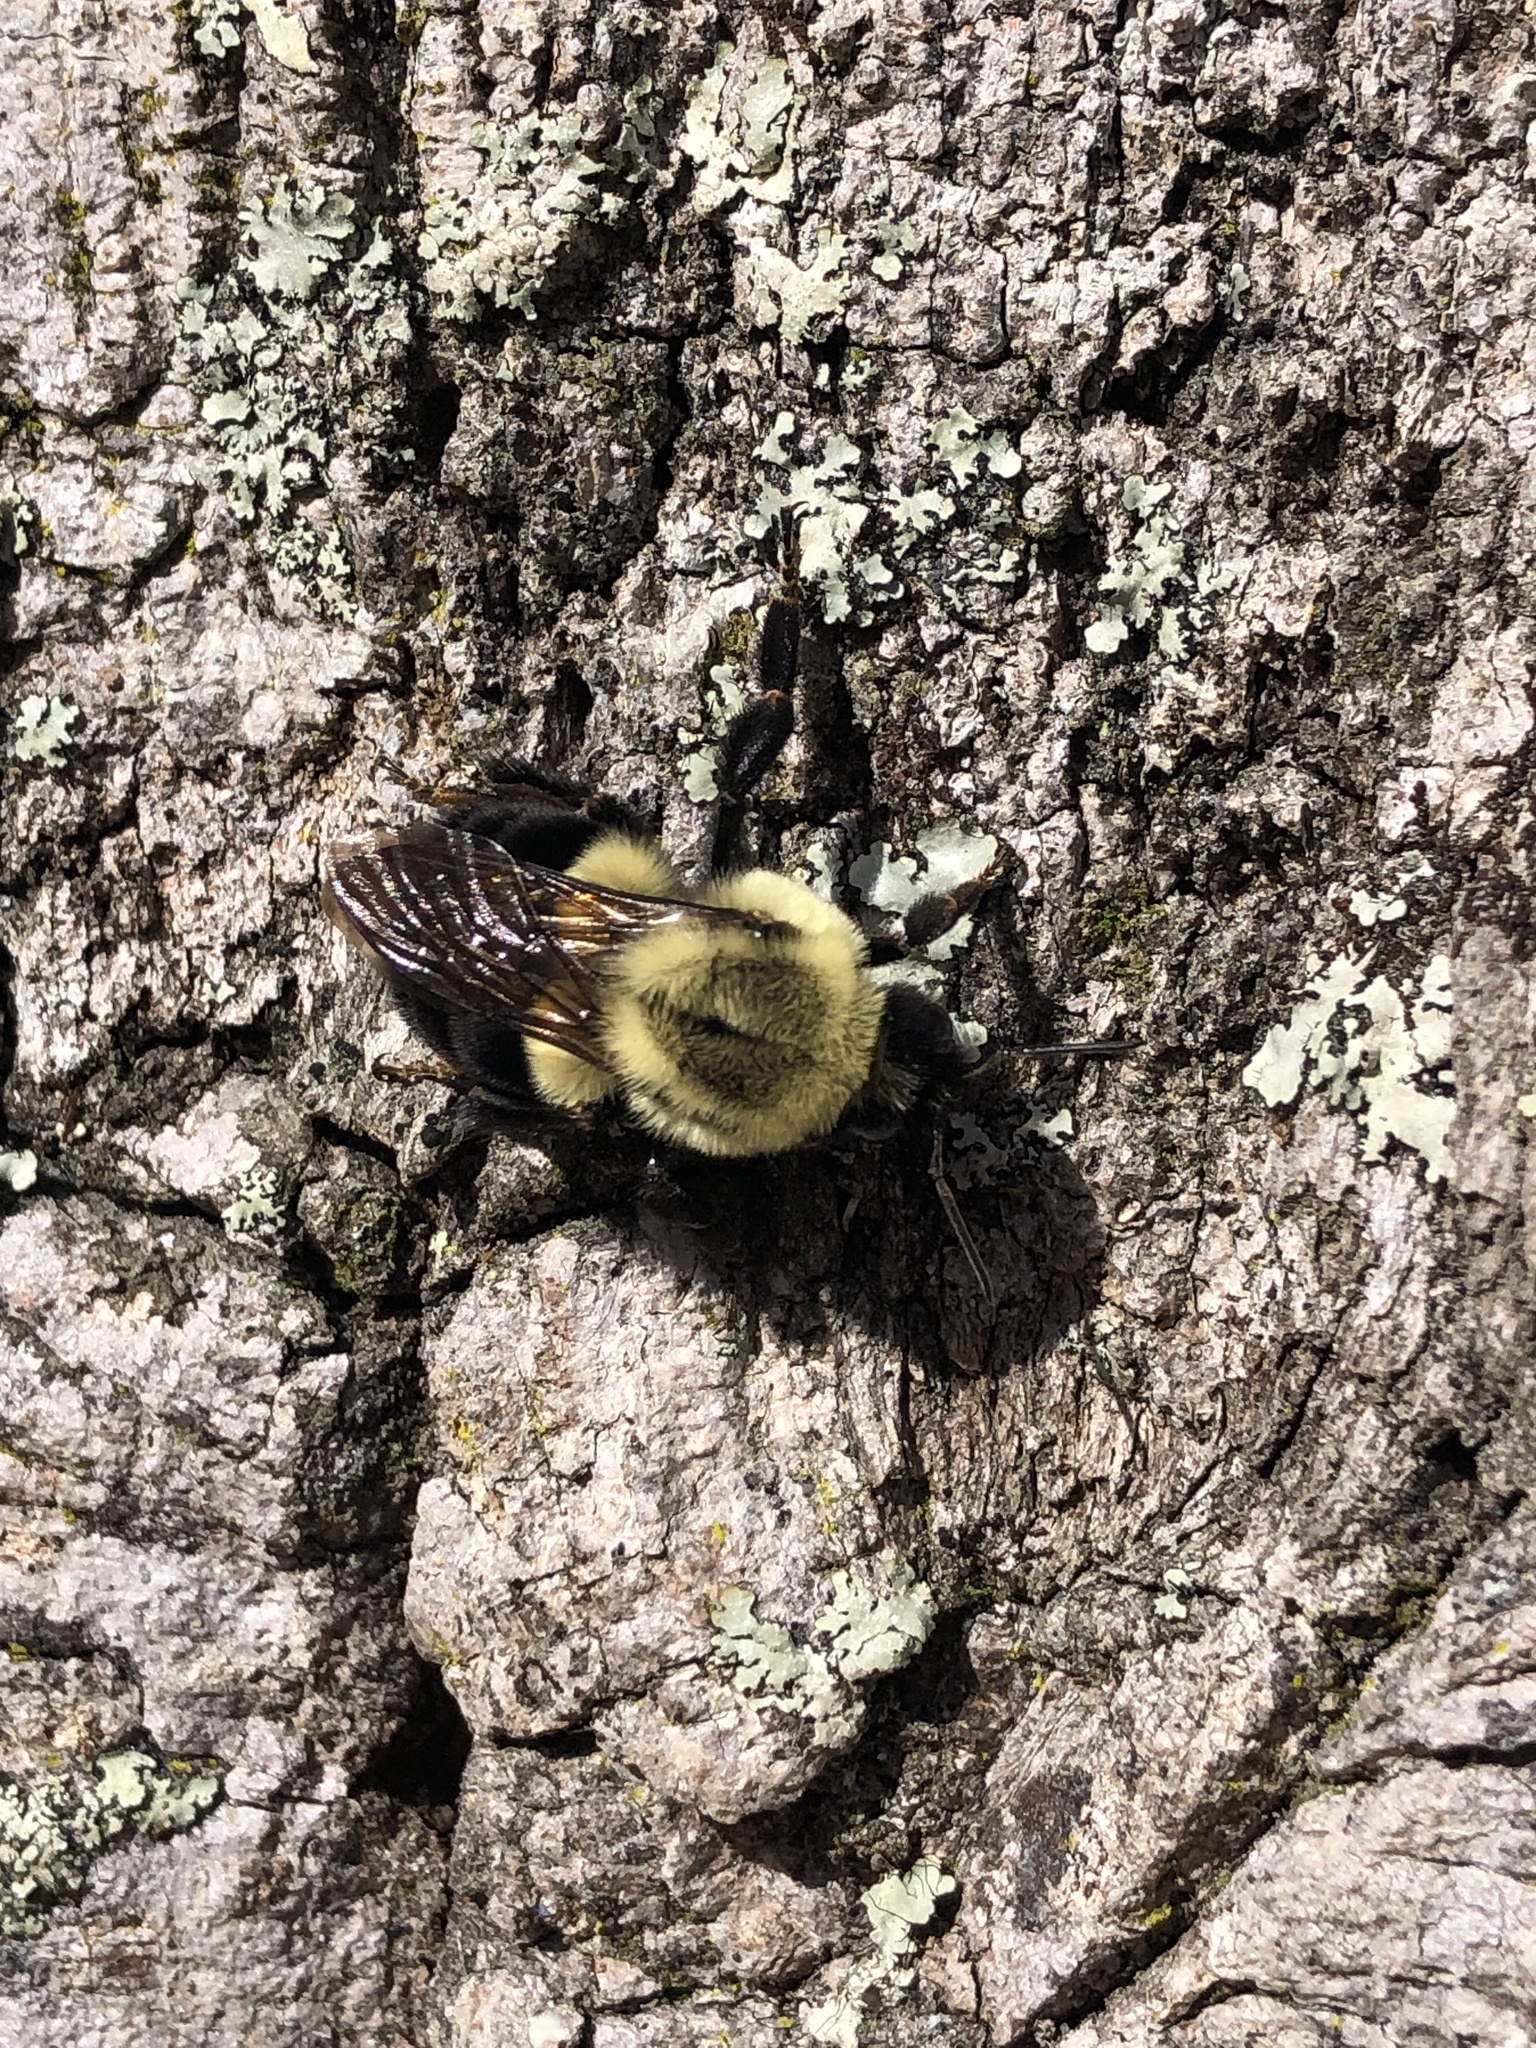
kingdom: Animalia
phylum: Arthropoda
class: Insecta
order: Hymenoptera
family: Apidae
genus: Bombus
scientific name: Bombus impatiens
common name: Common eastern bumble bee
